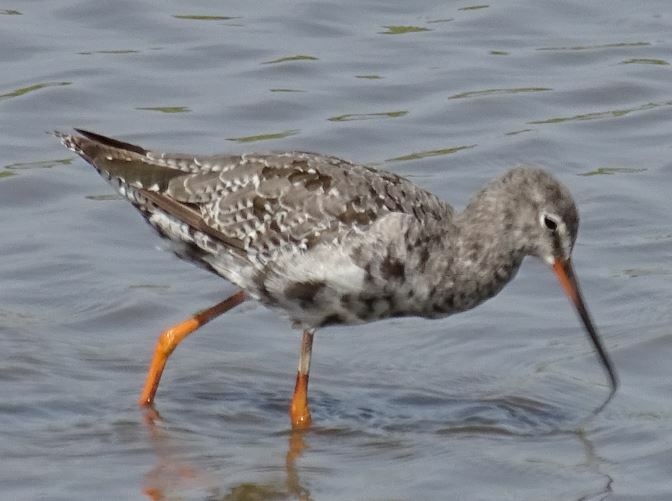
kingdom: Animalia
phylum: Chordata
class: Aves
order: Charadriiformes
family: Scolopacidae
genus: Tringa
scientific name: Tringa erythropus
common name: Spotted redshank
